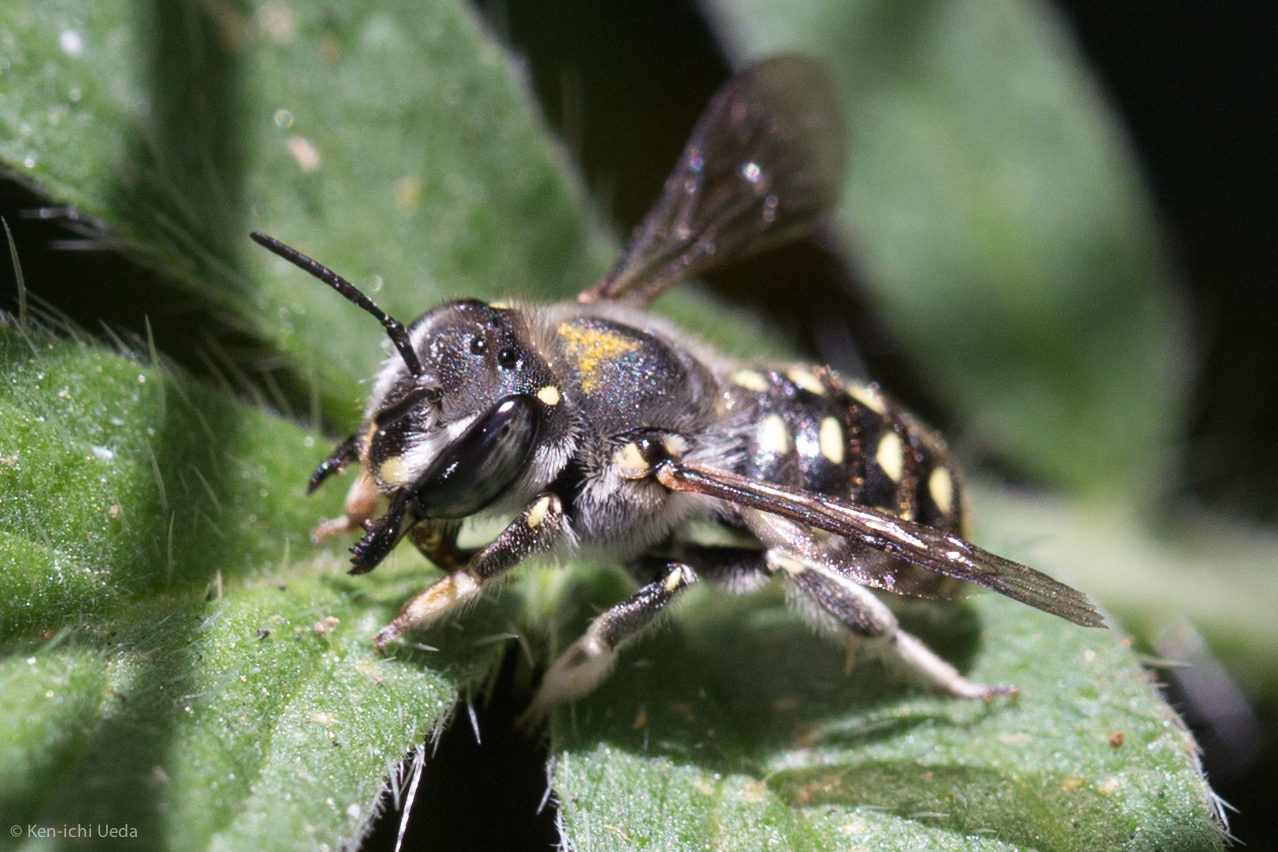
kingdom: Animalia
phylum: Arthropoda
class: Insecta
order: Hymenoptera
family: Megachilidae
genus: Anthidium
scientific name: Anthidium maculosum
